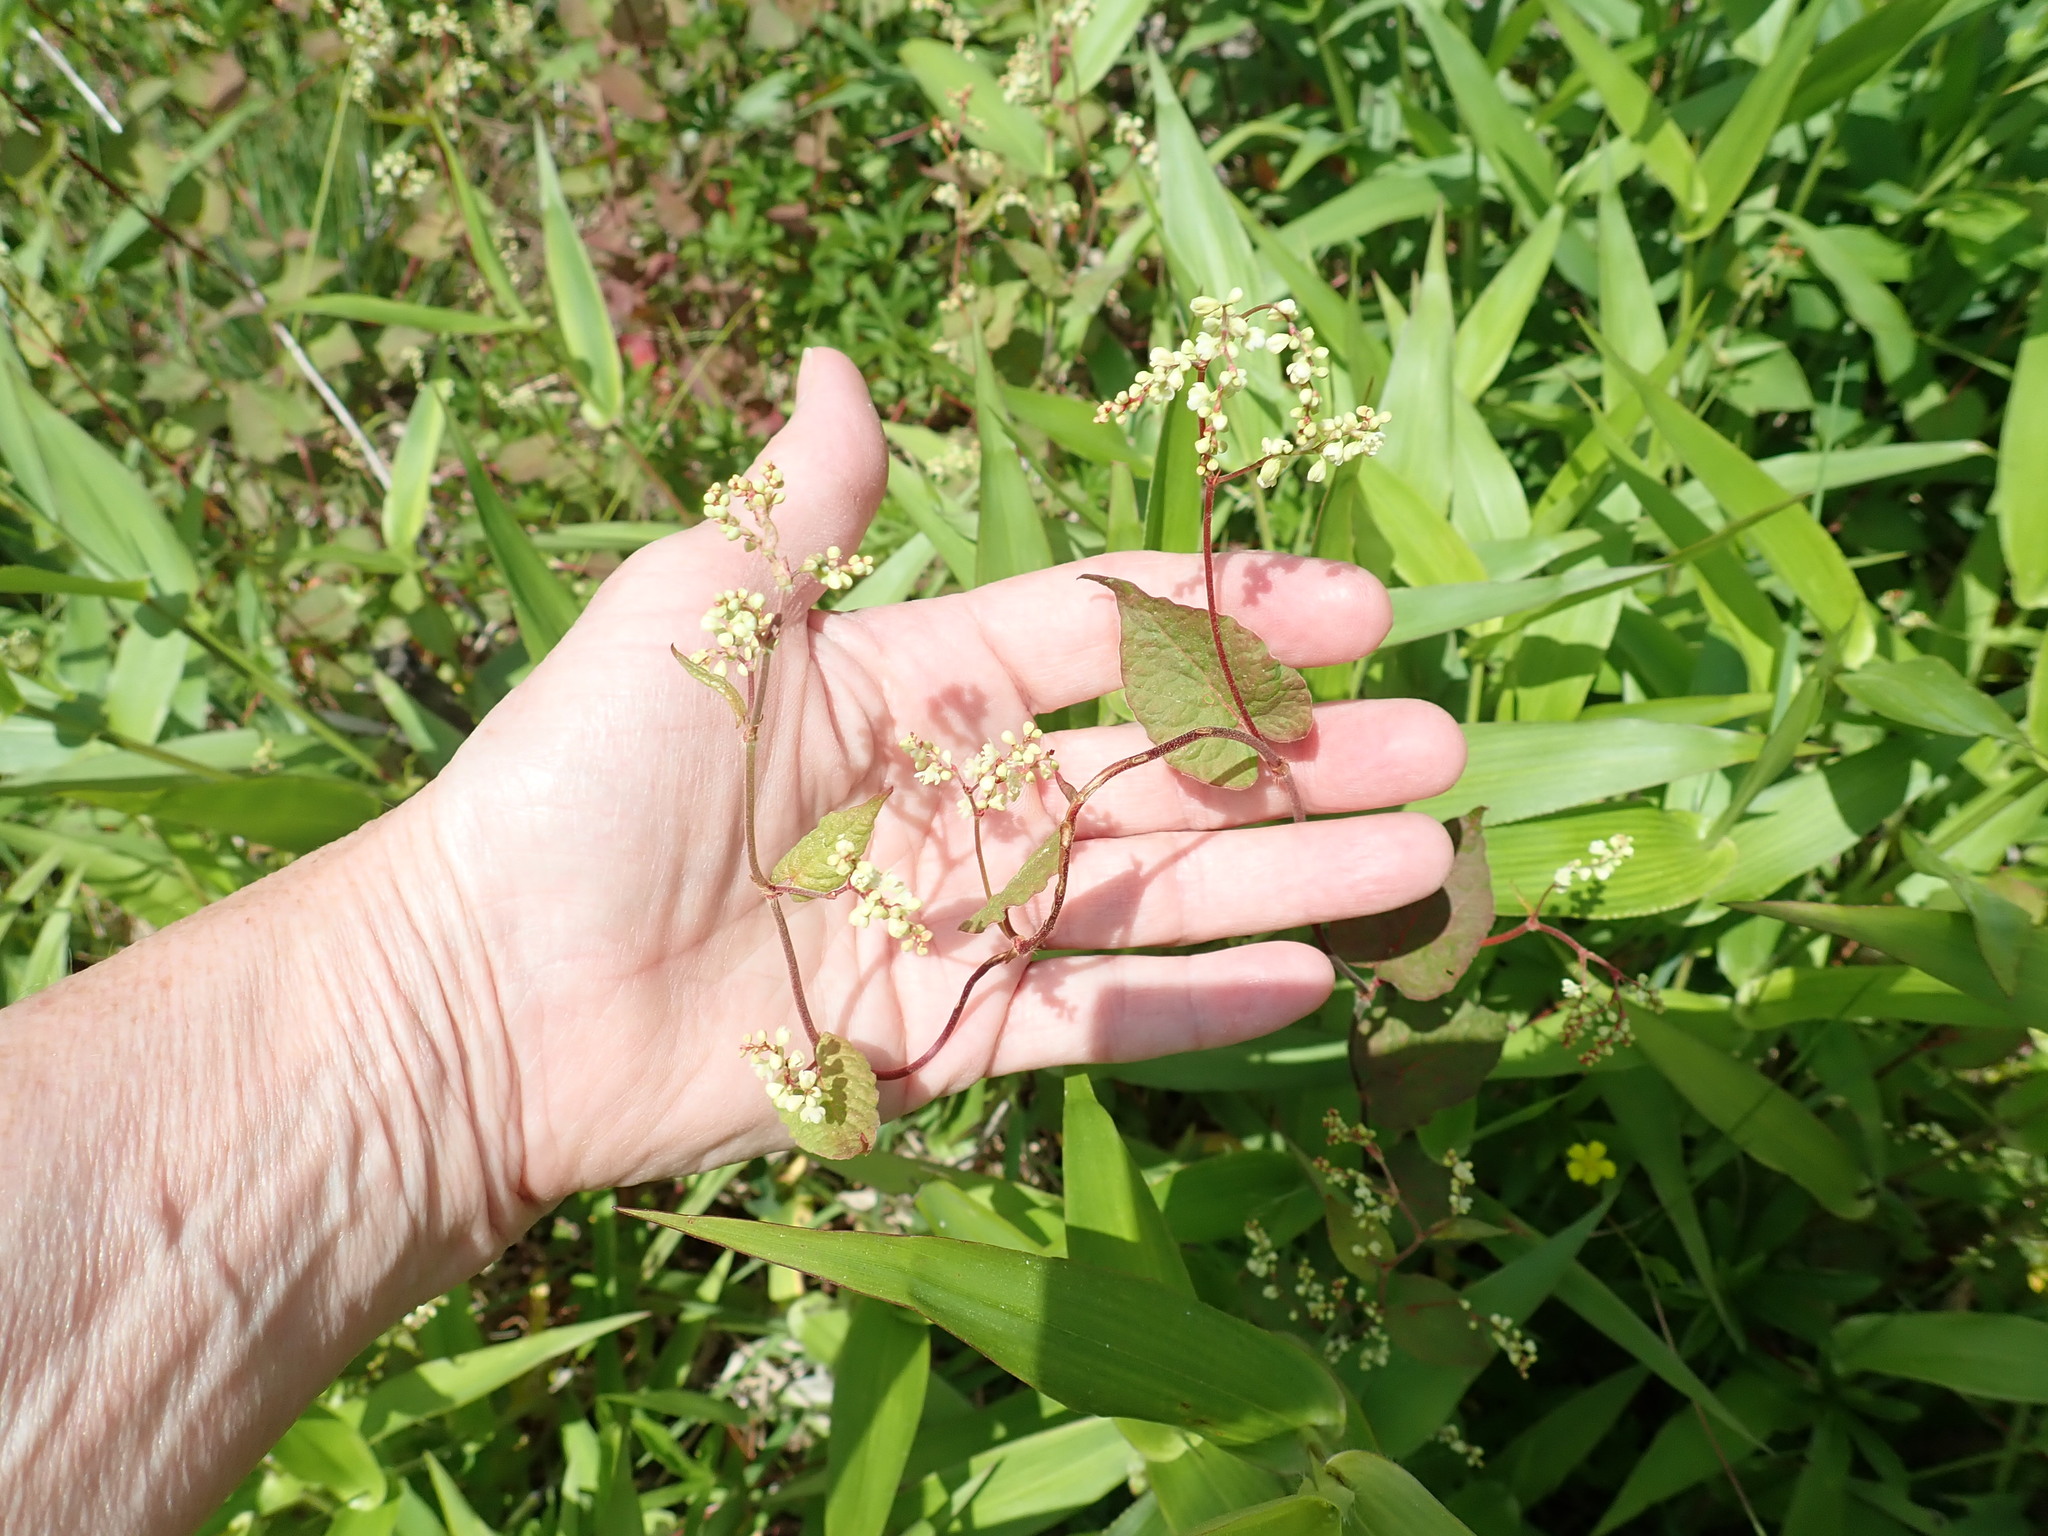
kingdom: Plantae
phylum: Tracheophyta
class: Magnoliopsida
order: Caryophyllales
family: Polygonaceae
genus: Fallopia
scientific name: Fallopia
